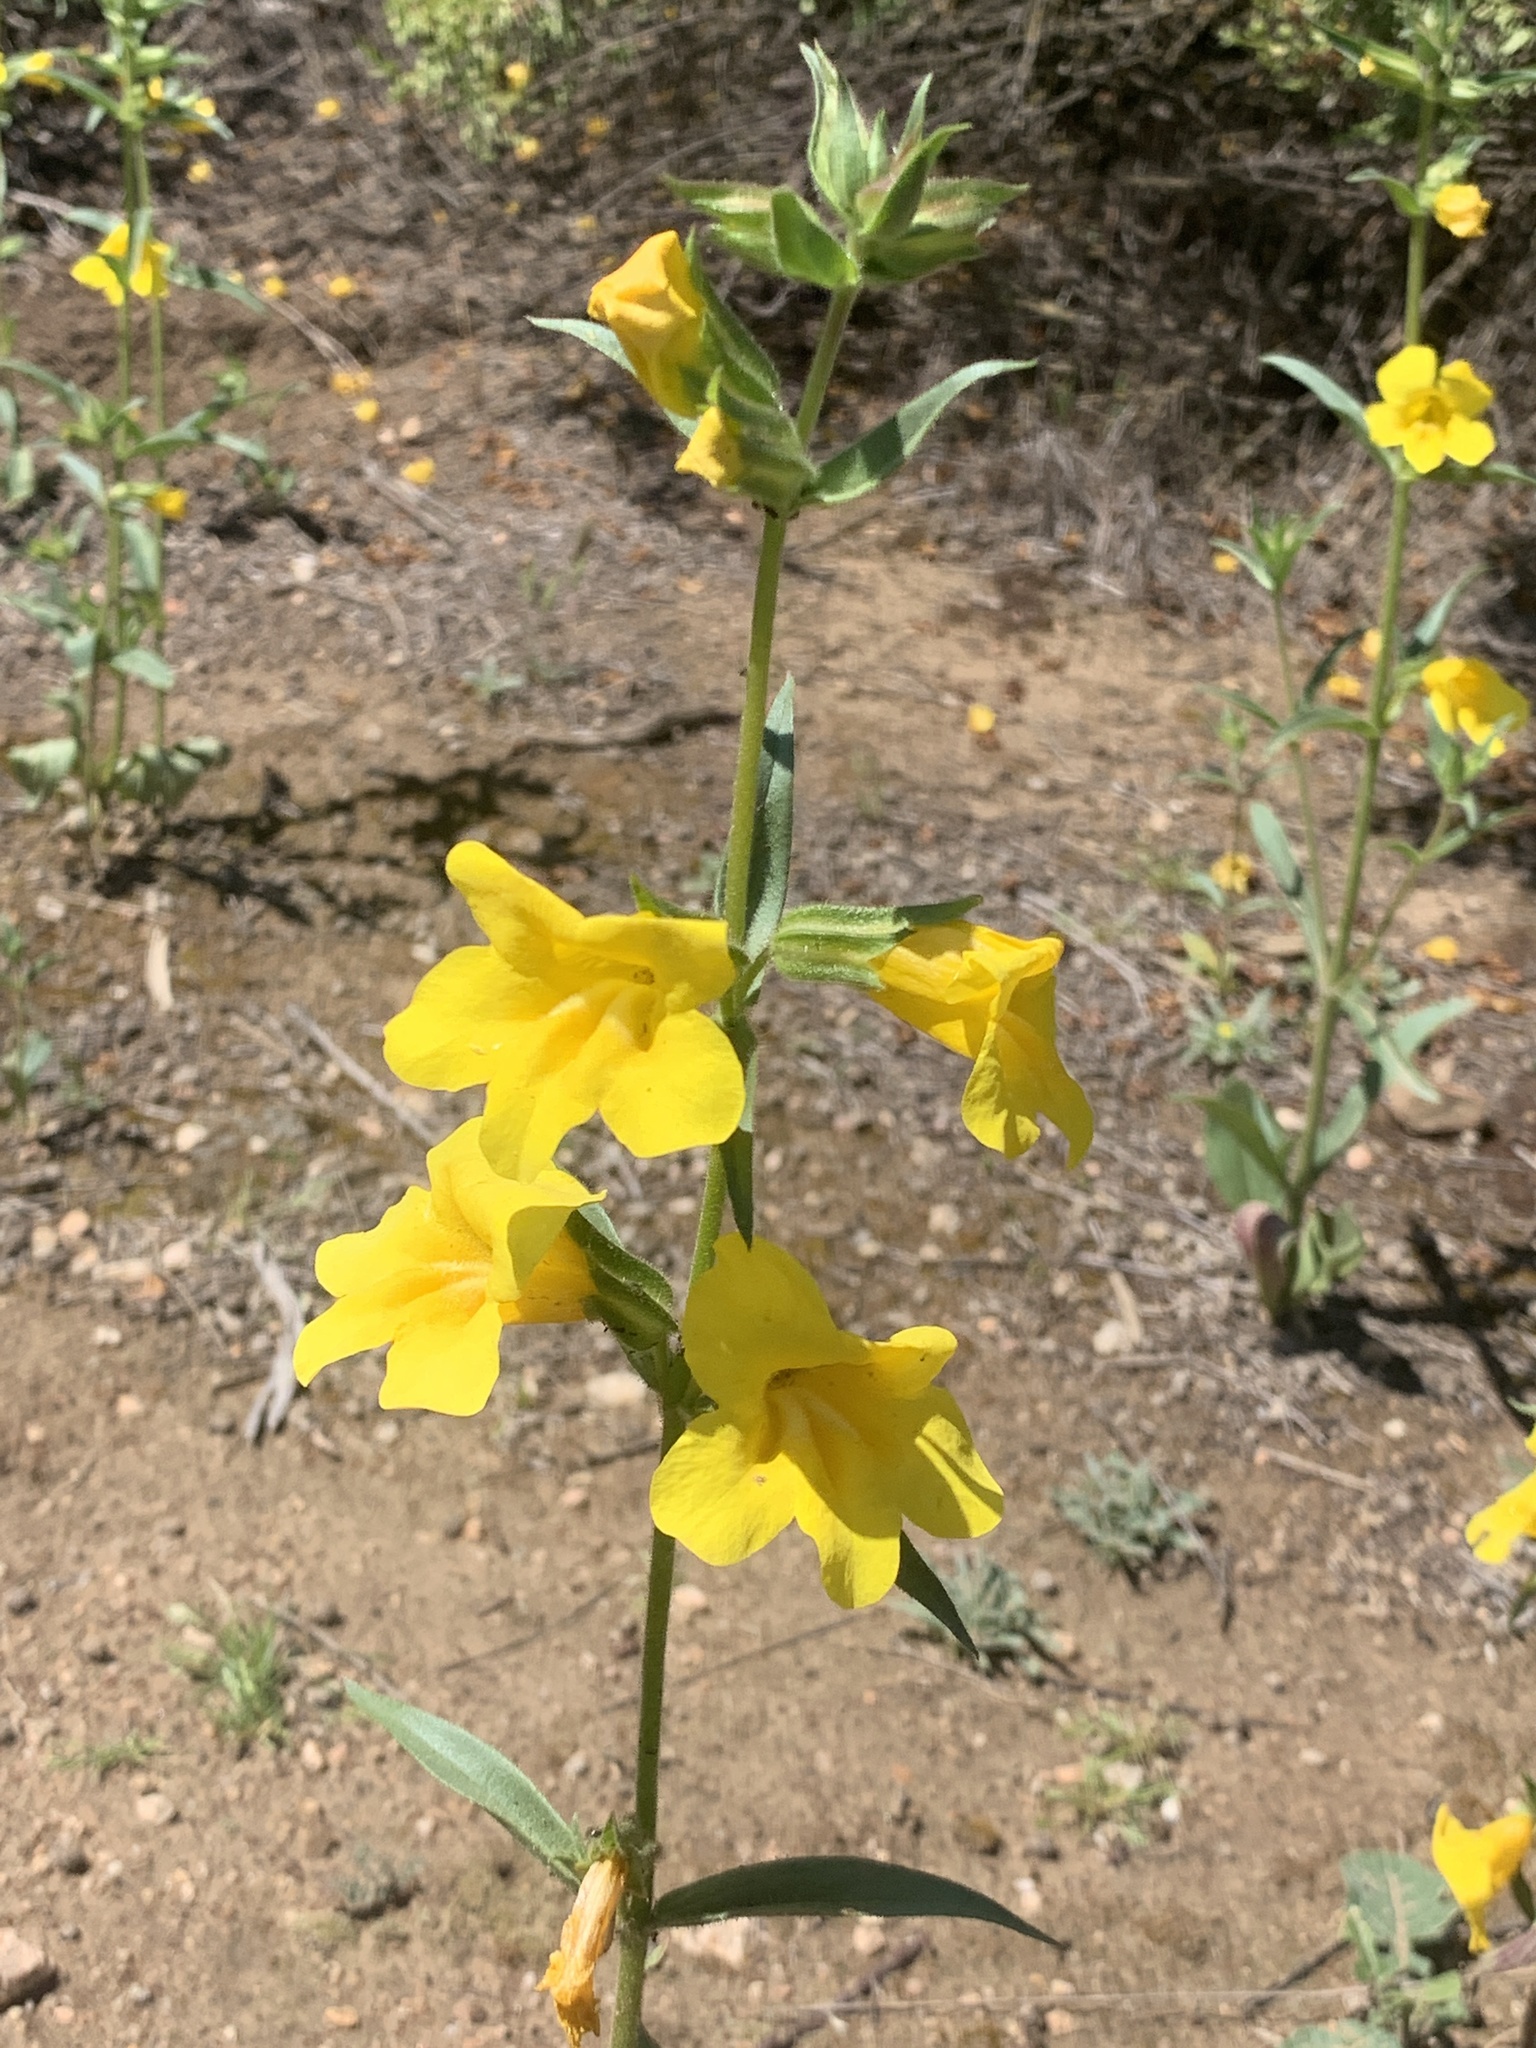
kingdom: Plantae
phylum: Tracheophyta
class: Magnoliopsida
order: Lamiales
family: Phrymaceae
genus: Diplacus
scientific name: Diplacus brevipes
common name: Wide-throat yellow monkey-flower
